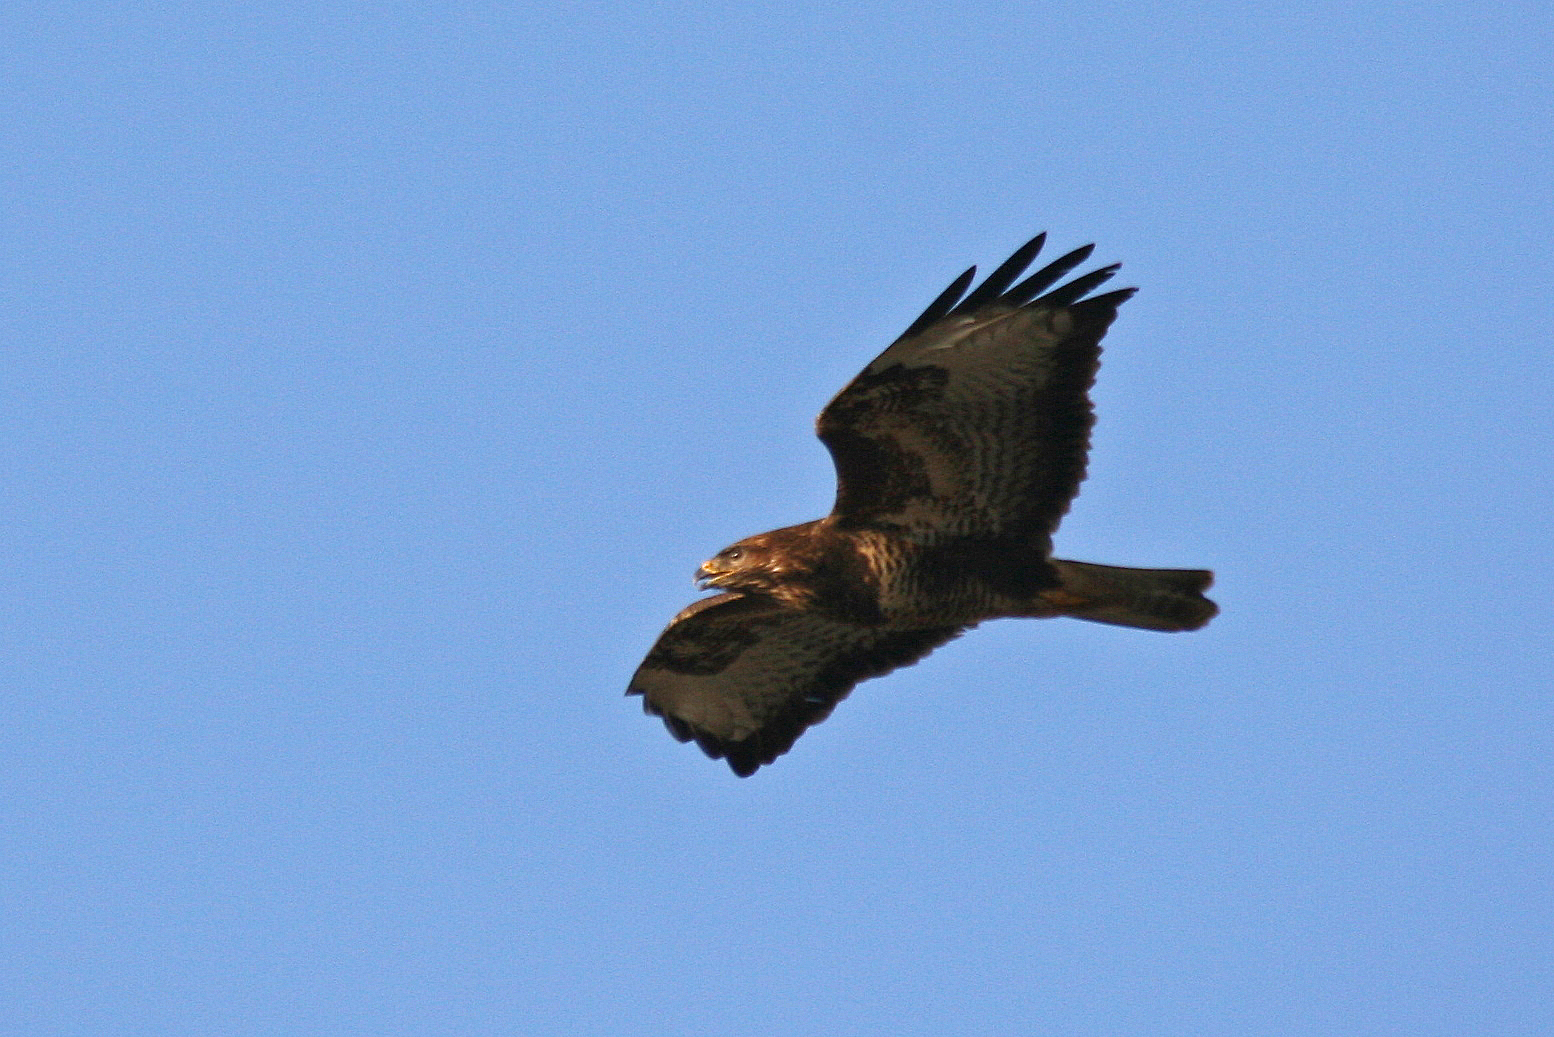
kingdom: Animalia
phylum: Chordata
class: Aves
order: Accipitriformes
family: Accipitridae
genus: Buteo
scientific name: Buteo buteo
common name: Common buzzard
